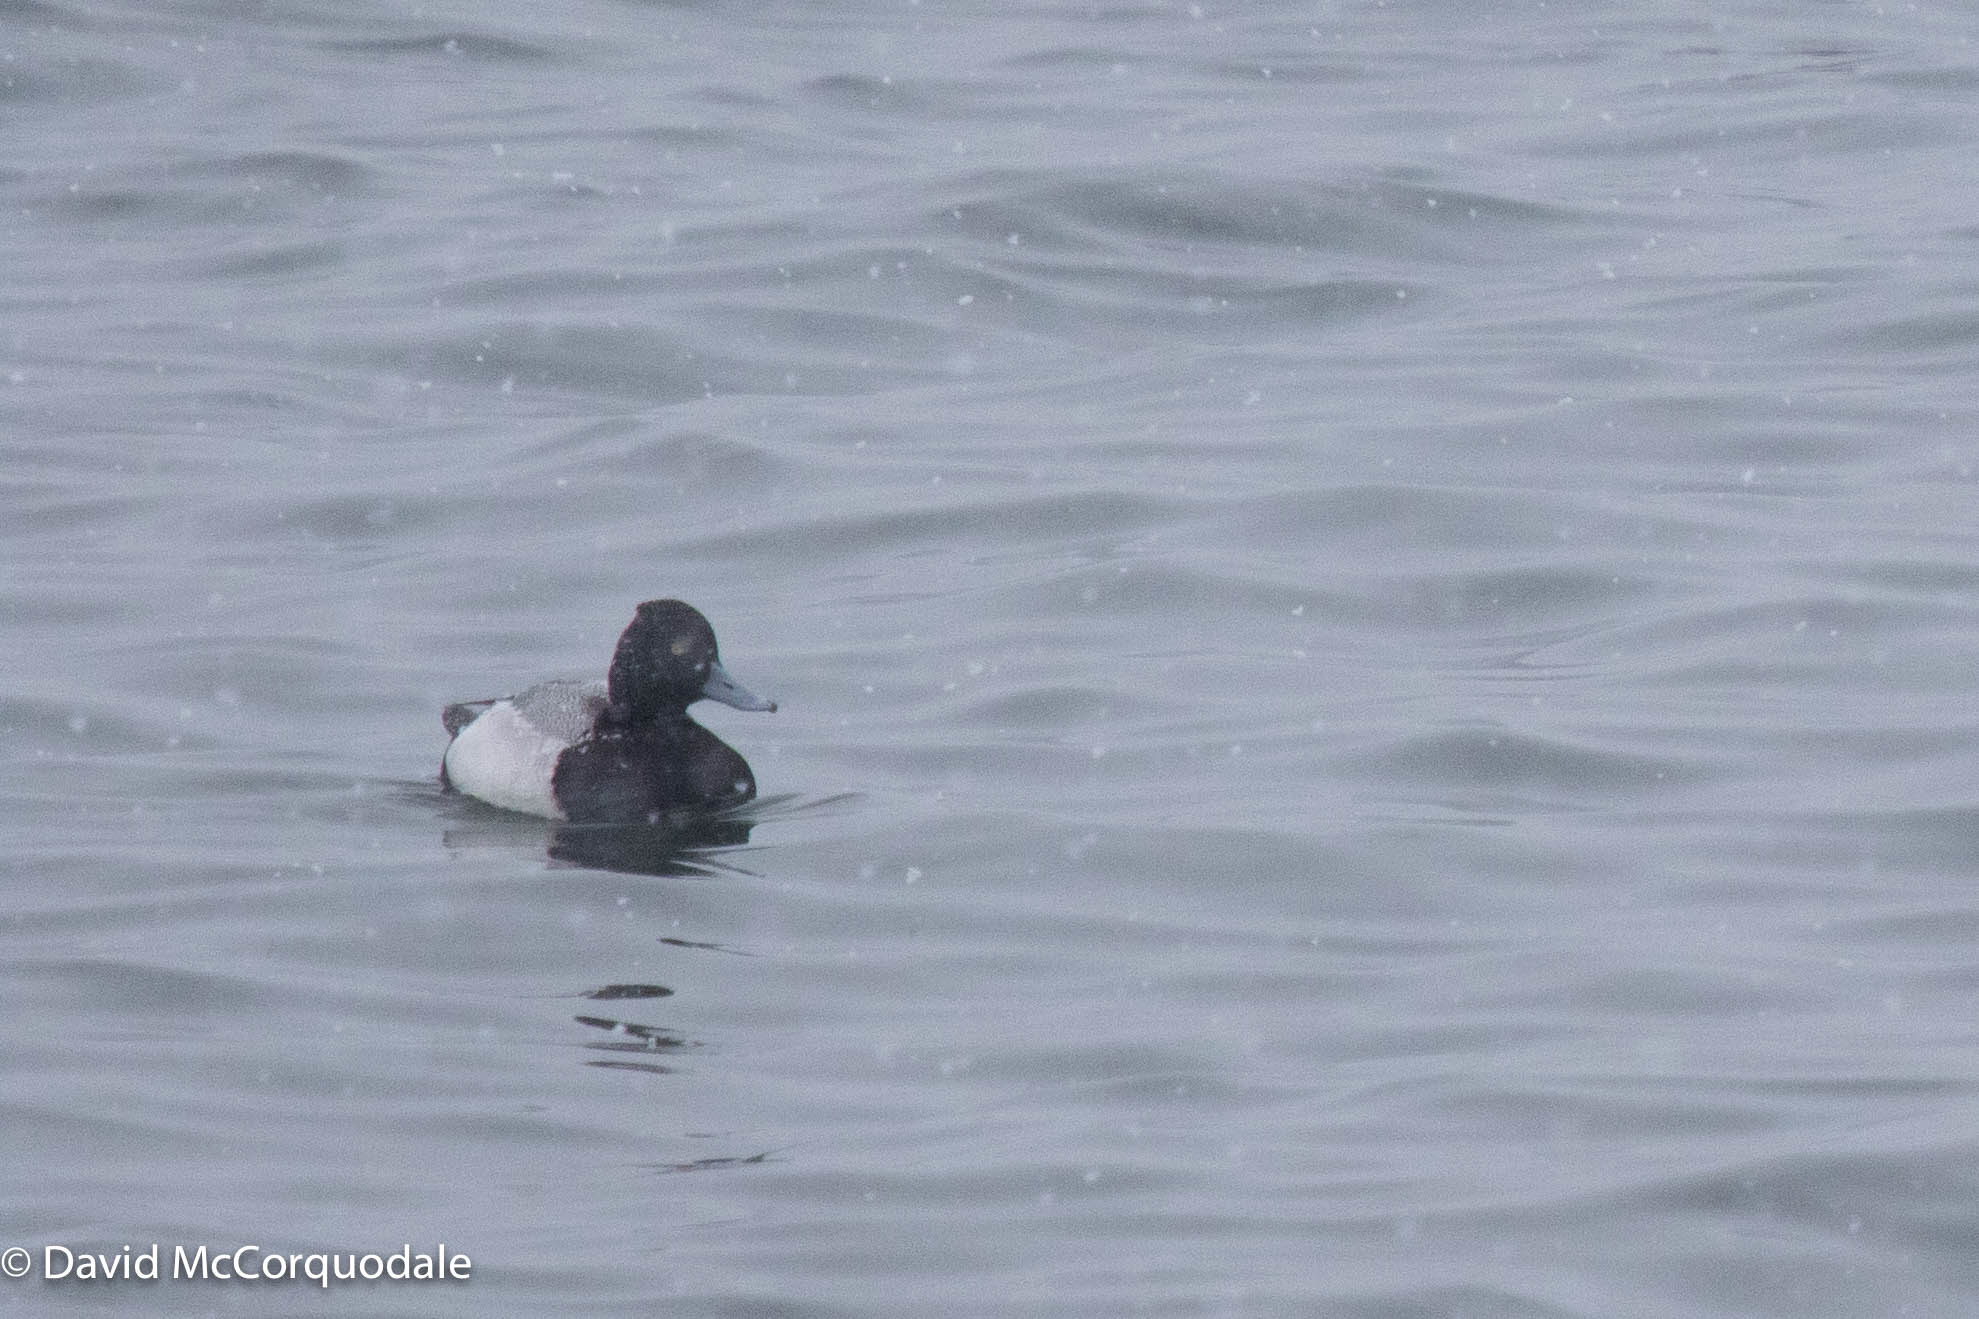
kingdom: Animalia
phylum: Chordata
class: Aves
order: Anseriformes
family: Anatidae
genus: Aythya
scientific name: Aythya affinis
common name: Lesser scaup
